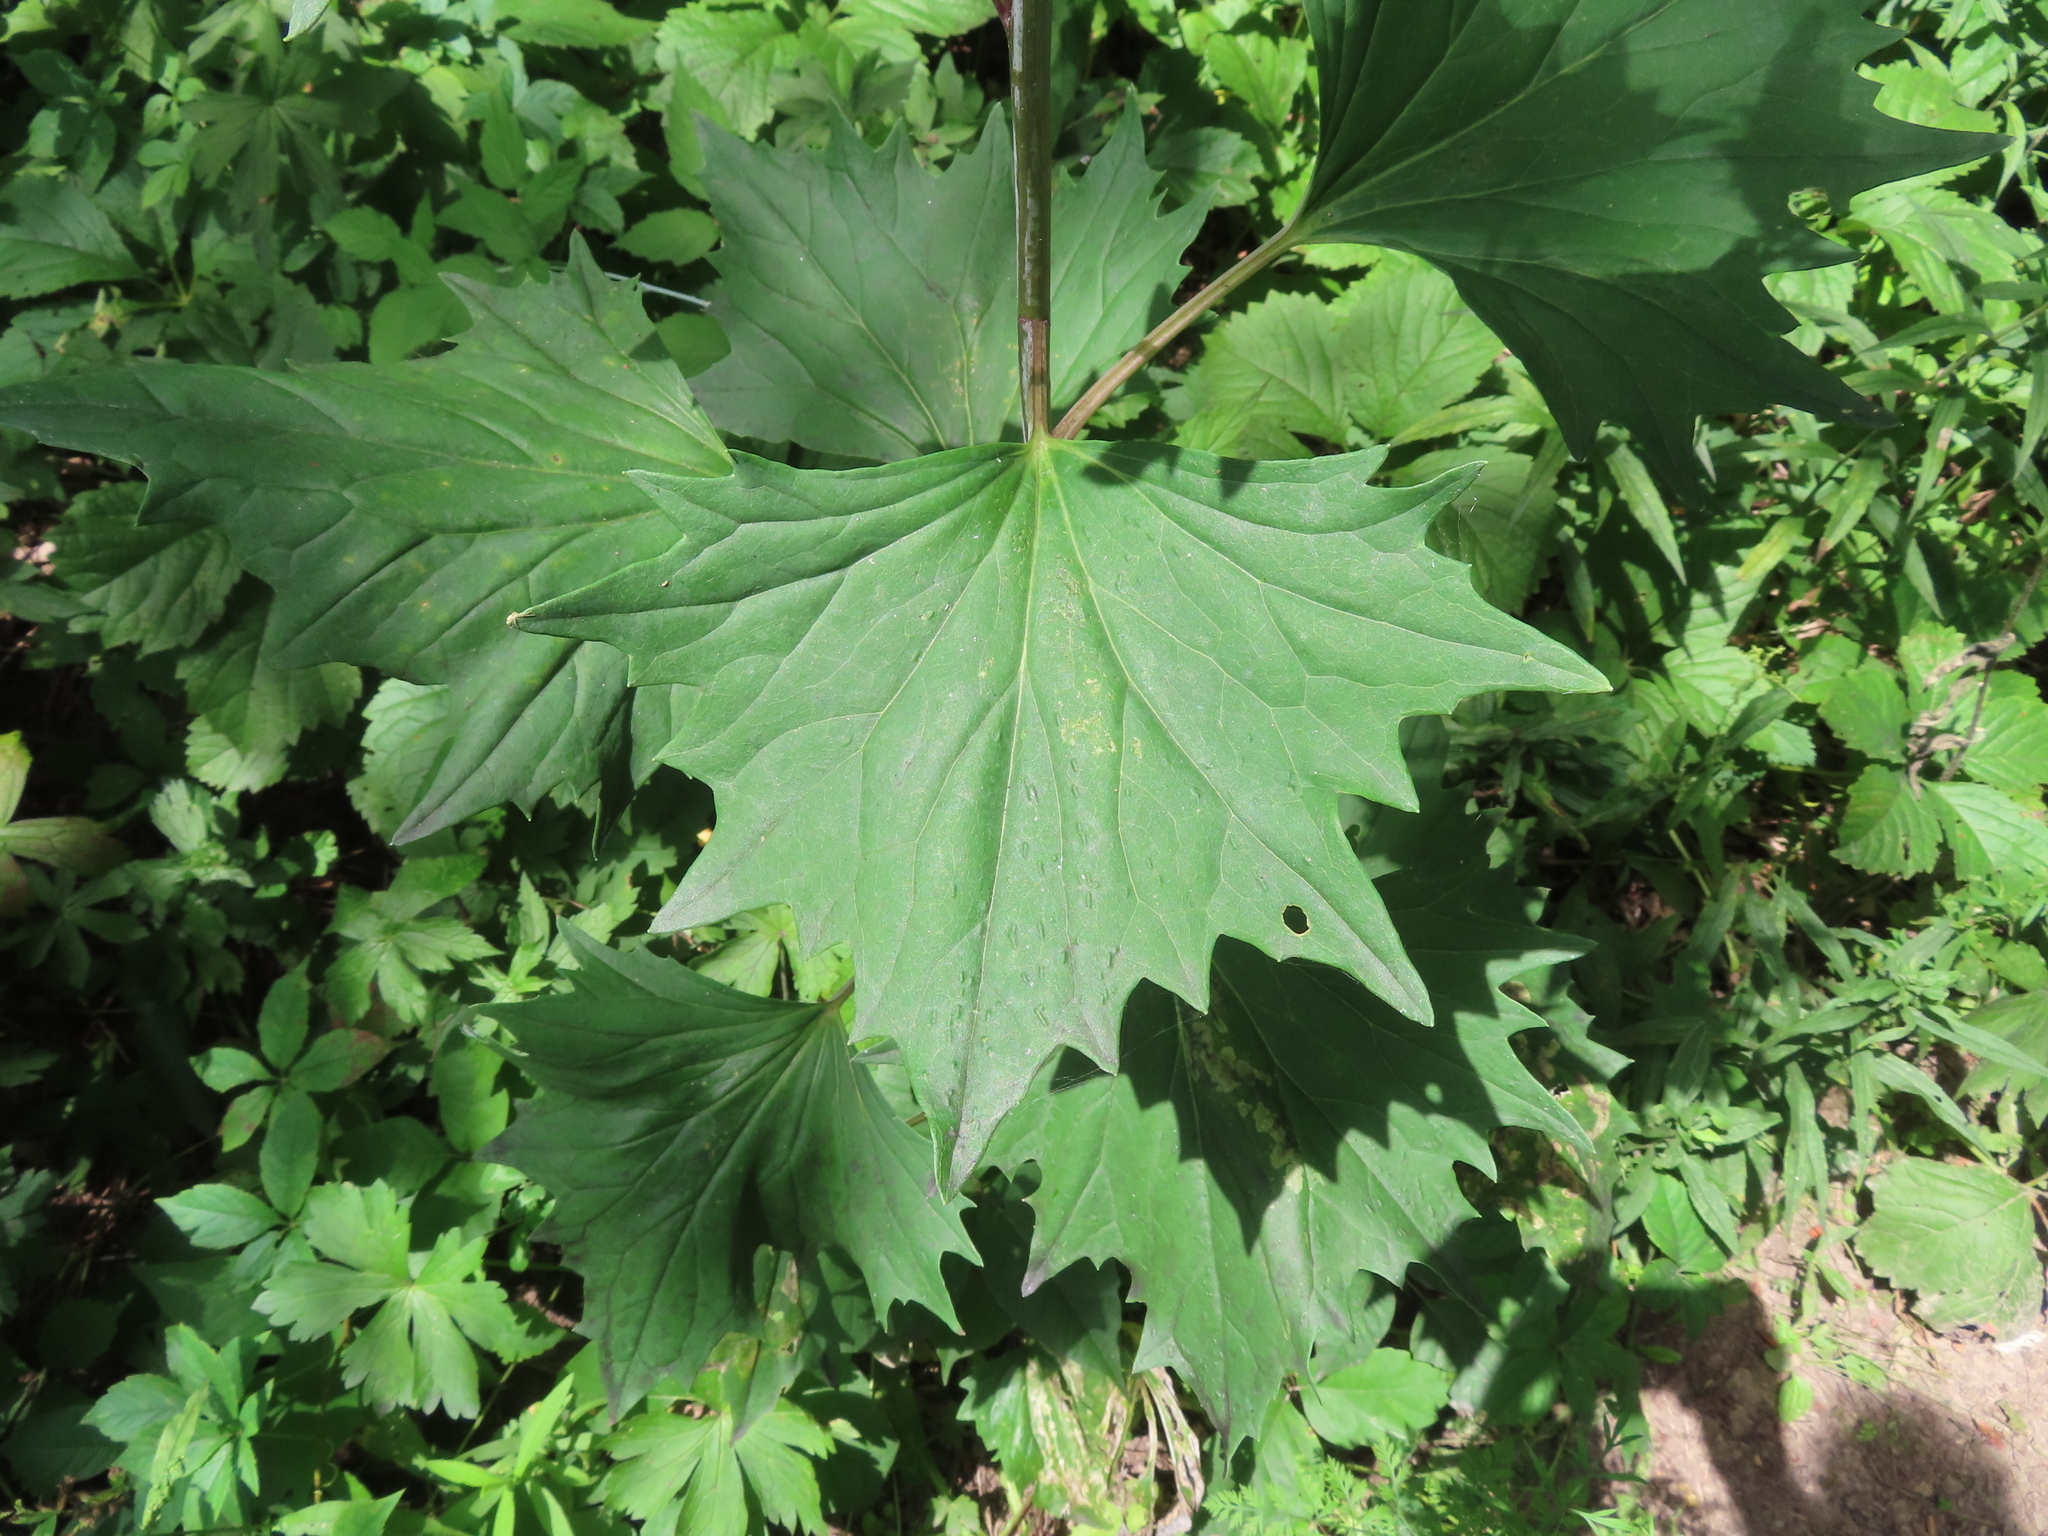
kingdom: Plantae
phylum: Tracheophyta
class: Magnoliopsida
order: Asterales
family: Asteraceae
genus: Arnoglossum
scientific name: Arnoglossum atriplicifolium
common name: Pale indian-plantain
